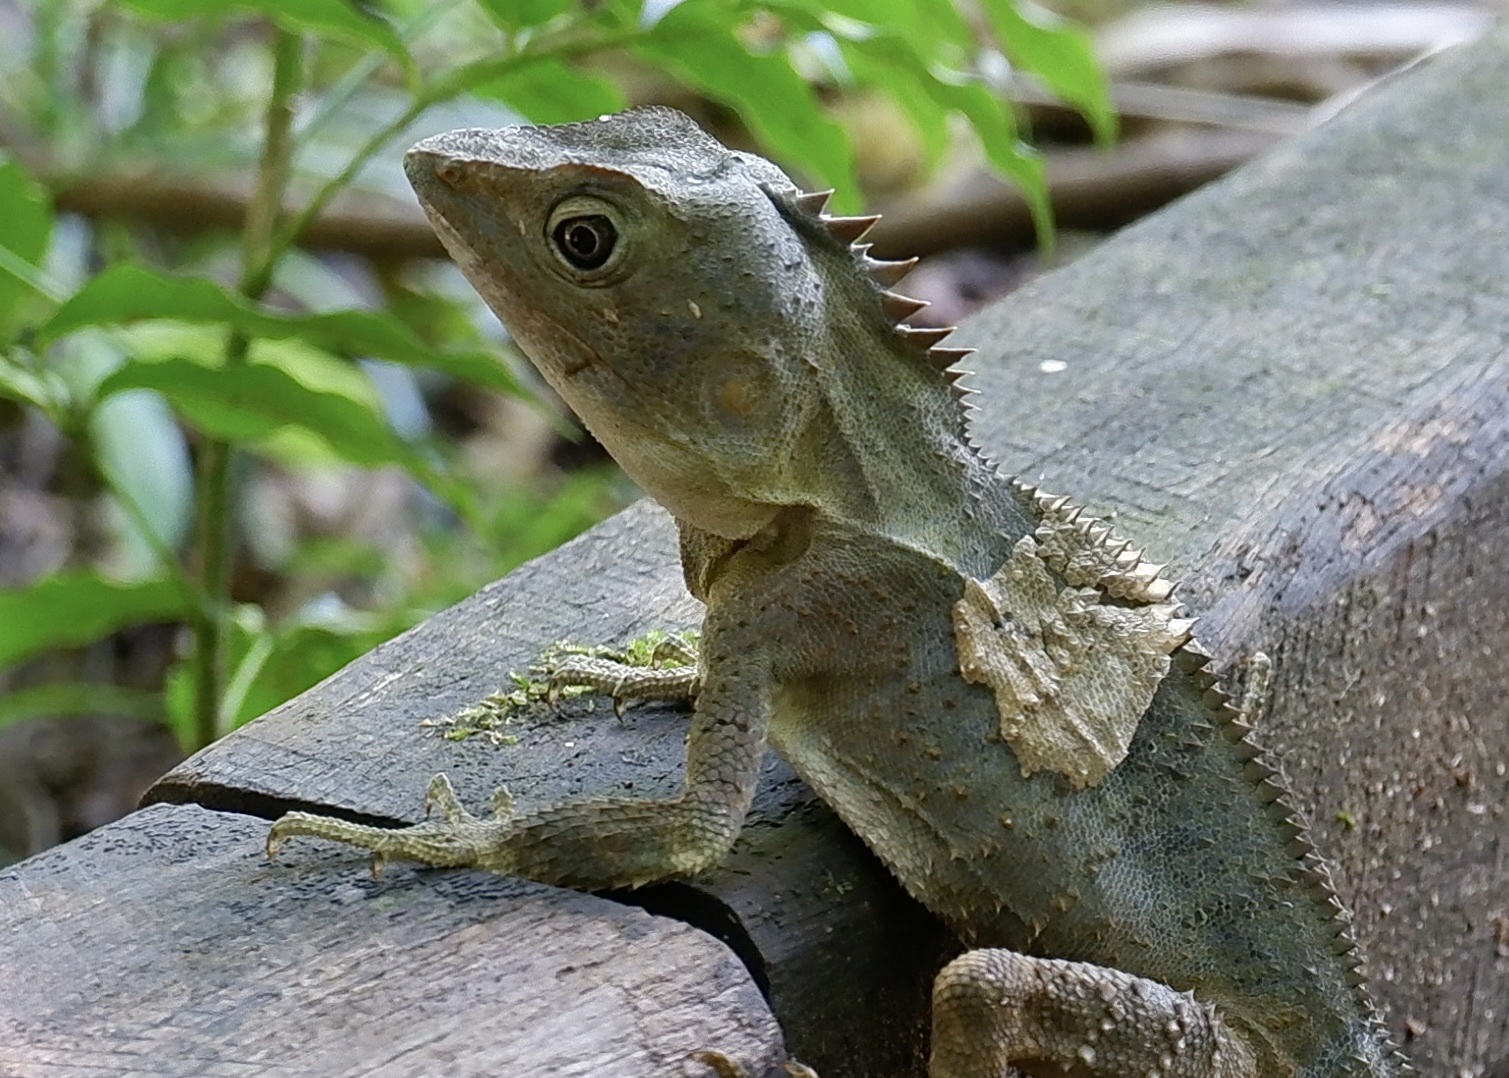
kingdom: Animalia
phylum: Chordata
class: Squamata
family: Agamidae
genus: Lophosaurus
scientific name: Lophosaurus spinipes
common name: Southern angle-headed dragon
